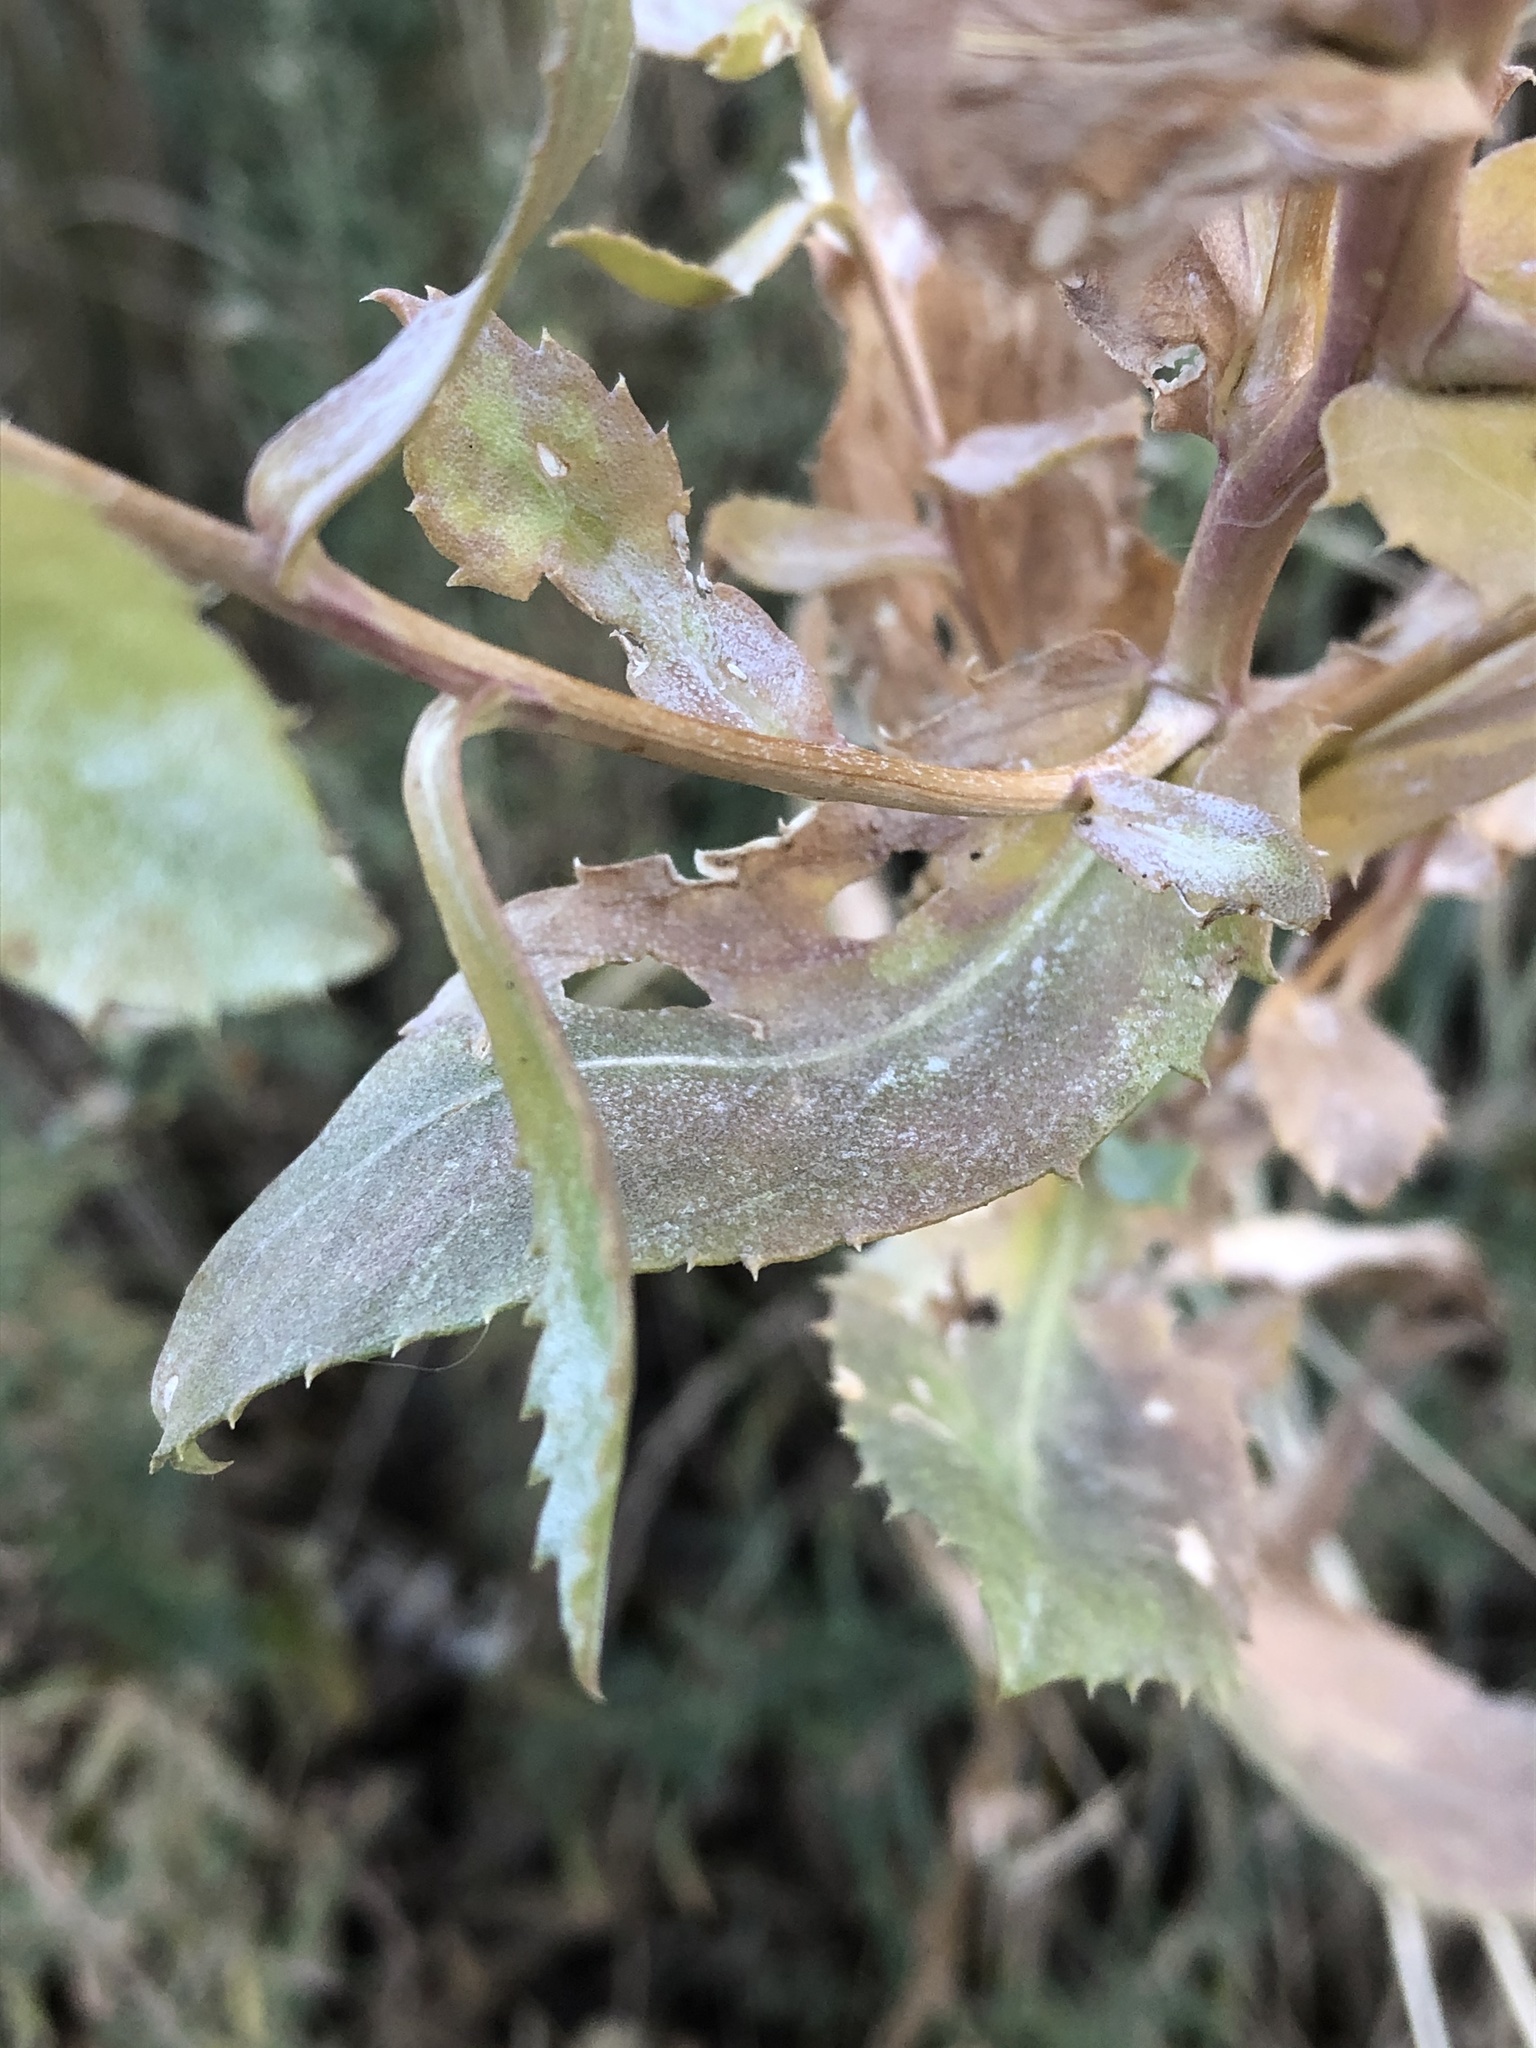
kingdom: Plantae
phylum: Tracheophyta
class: Magnoliopsida
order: Asterales
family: Asteraceae
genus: Grindelia
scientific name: Grindelia subalpina
